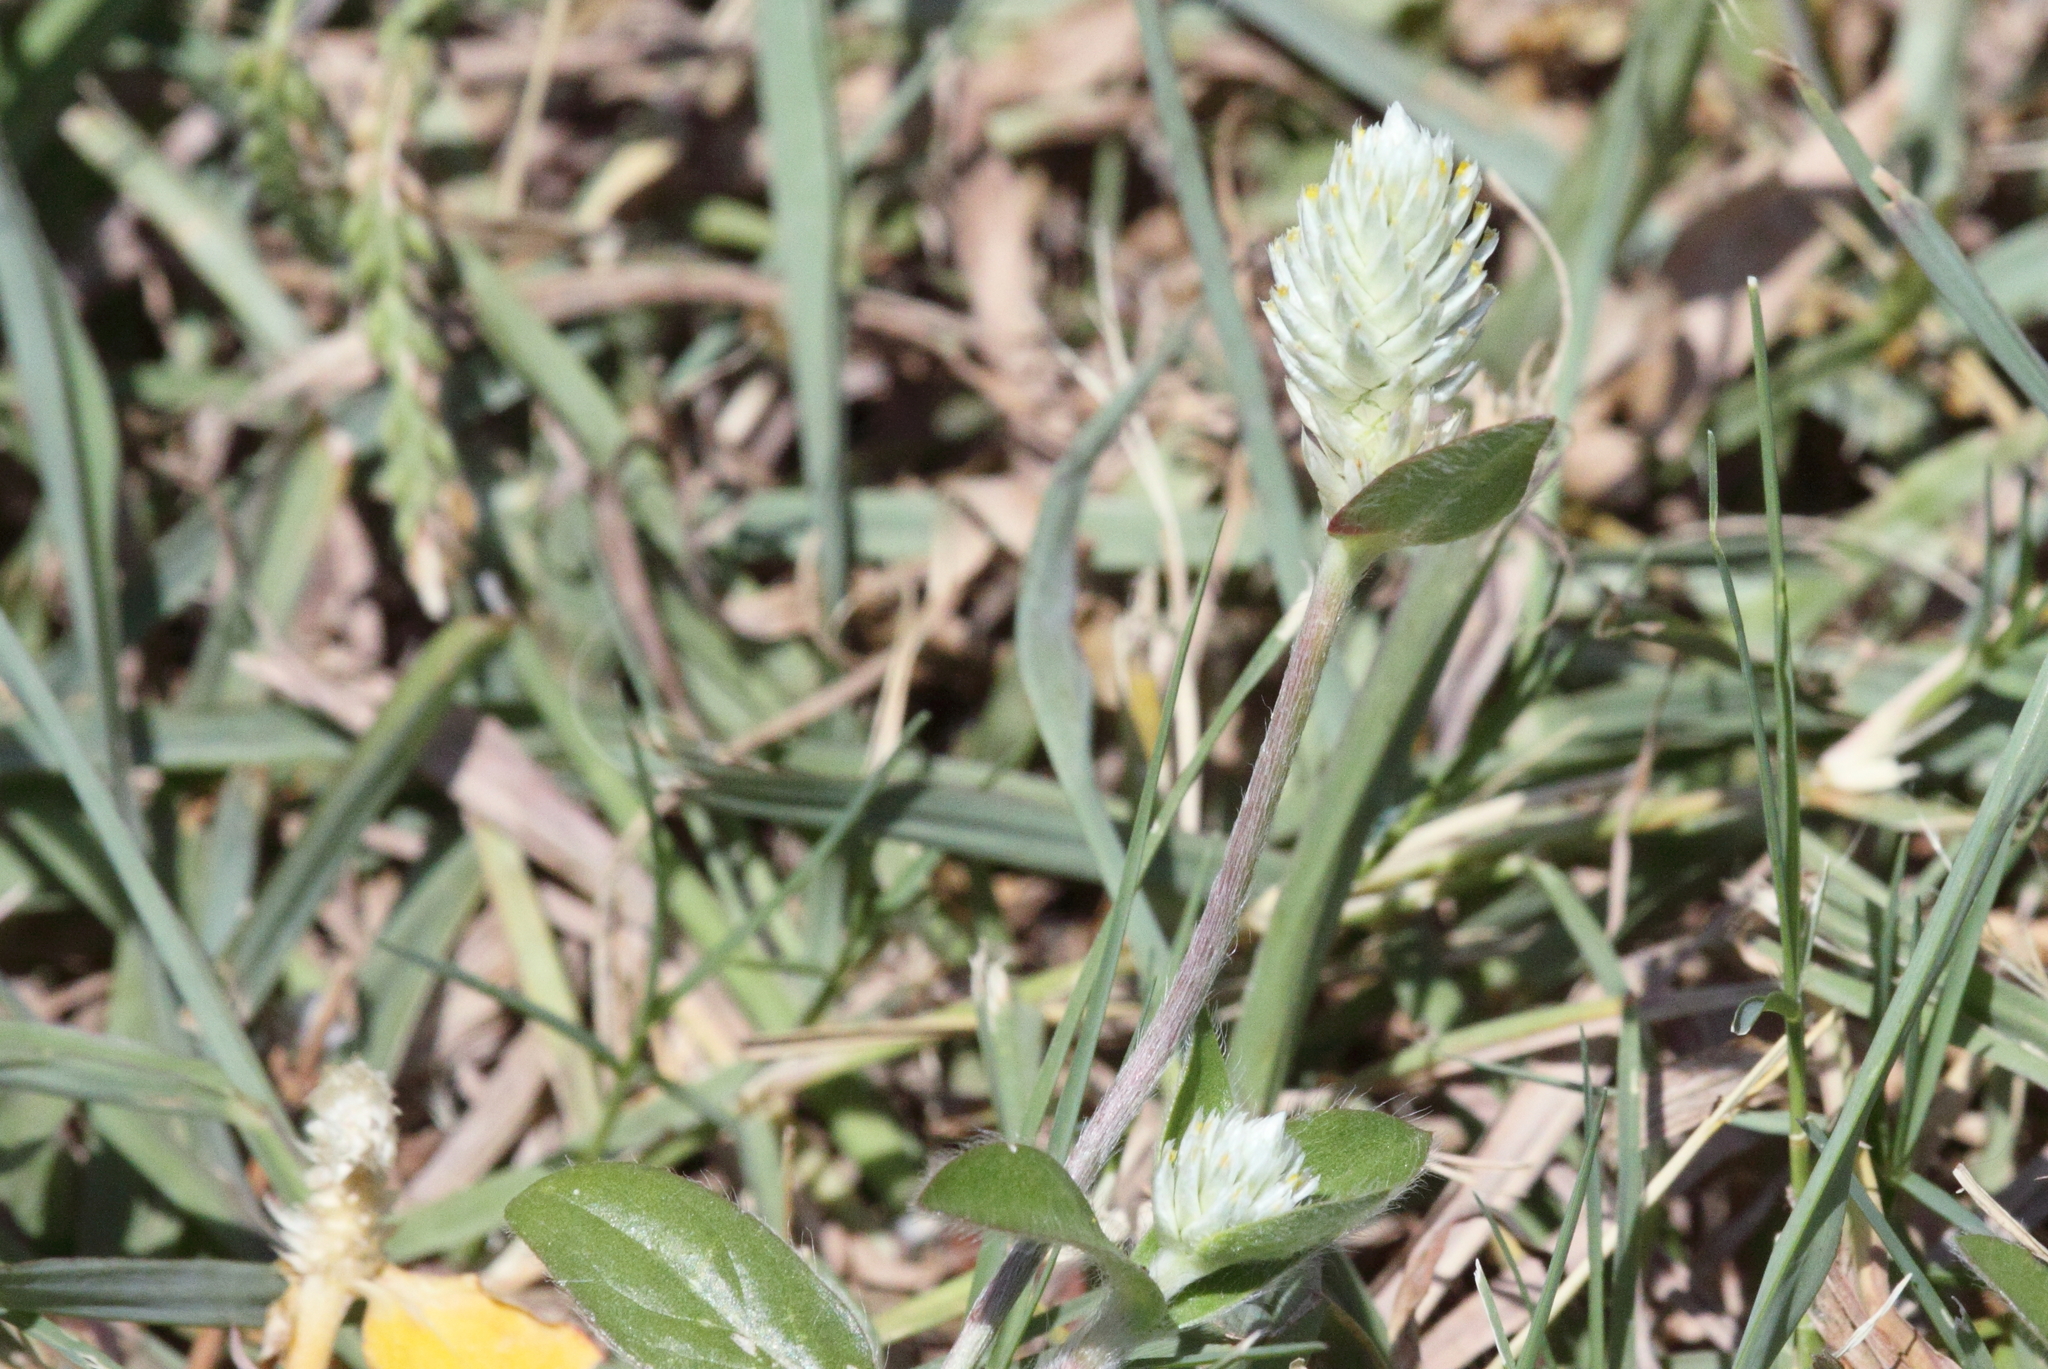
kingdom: Plantae
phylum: Tracheophyta
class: Magnoliopsida
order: Caryophyllales
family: Amaranthaceae
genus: Gomphrena
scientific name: Gomphrena celosioides
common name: Gomphrena-weed
